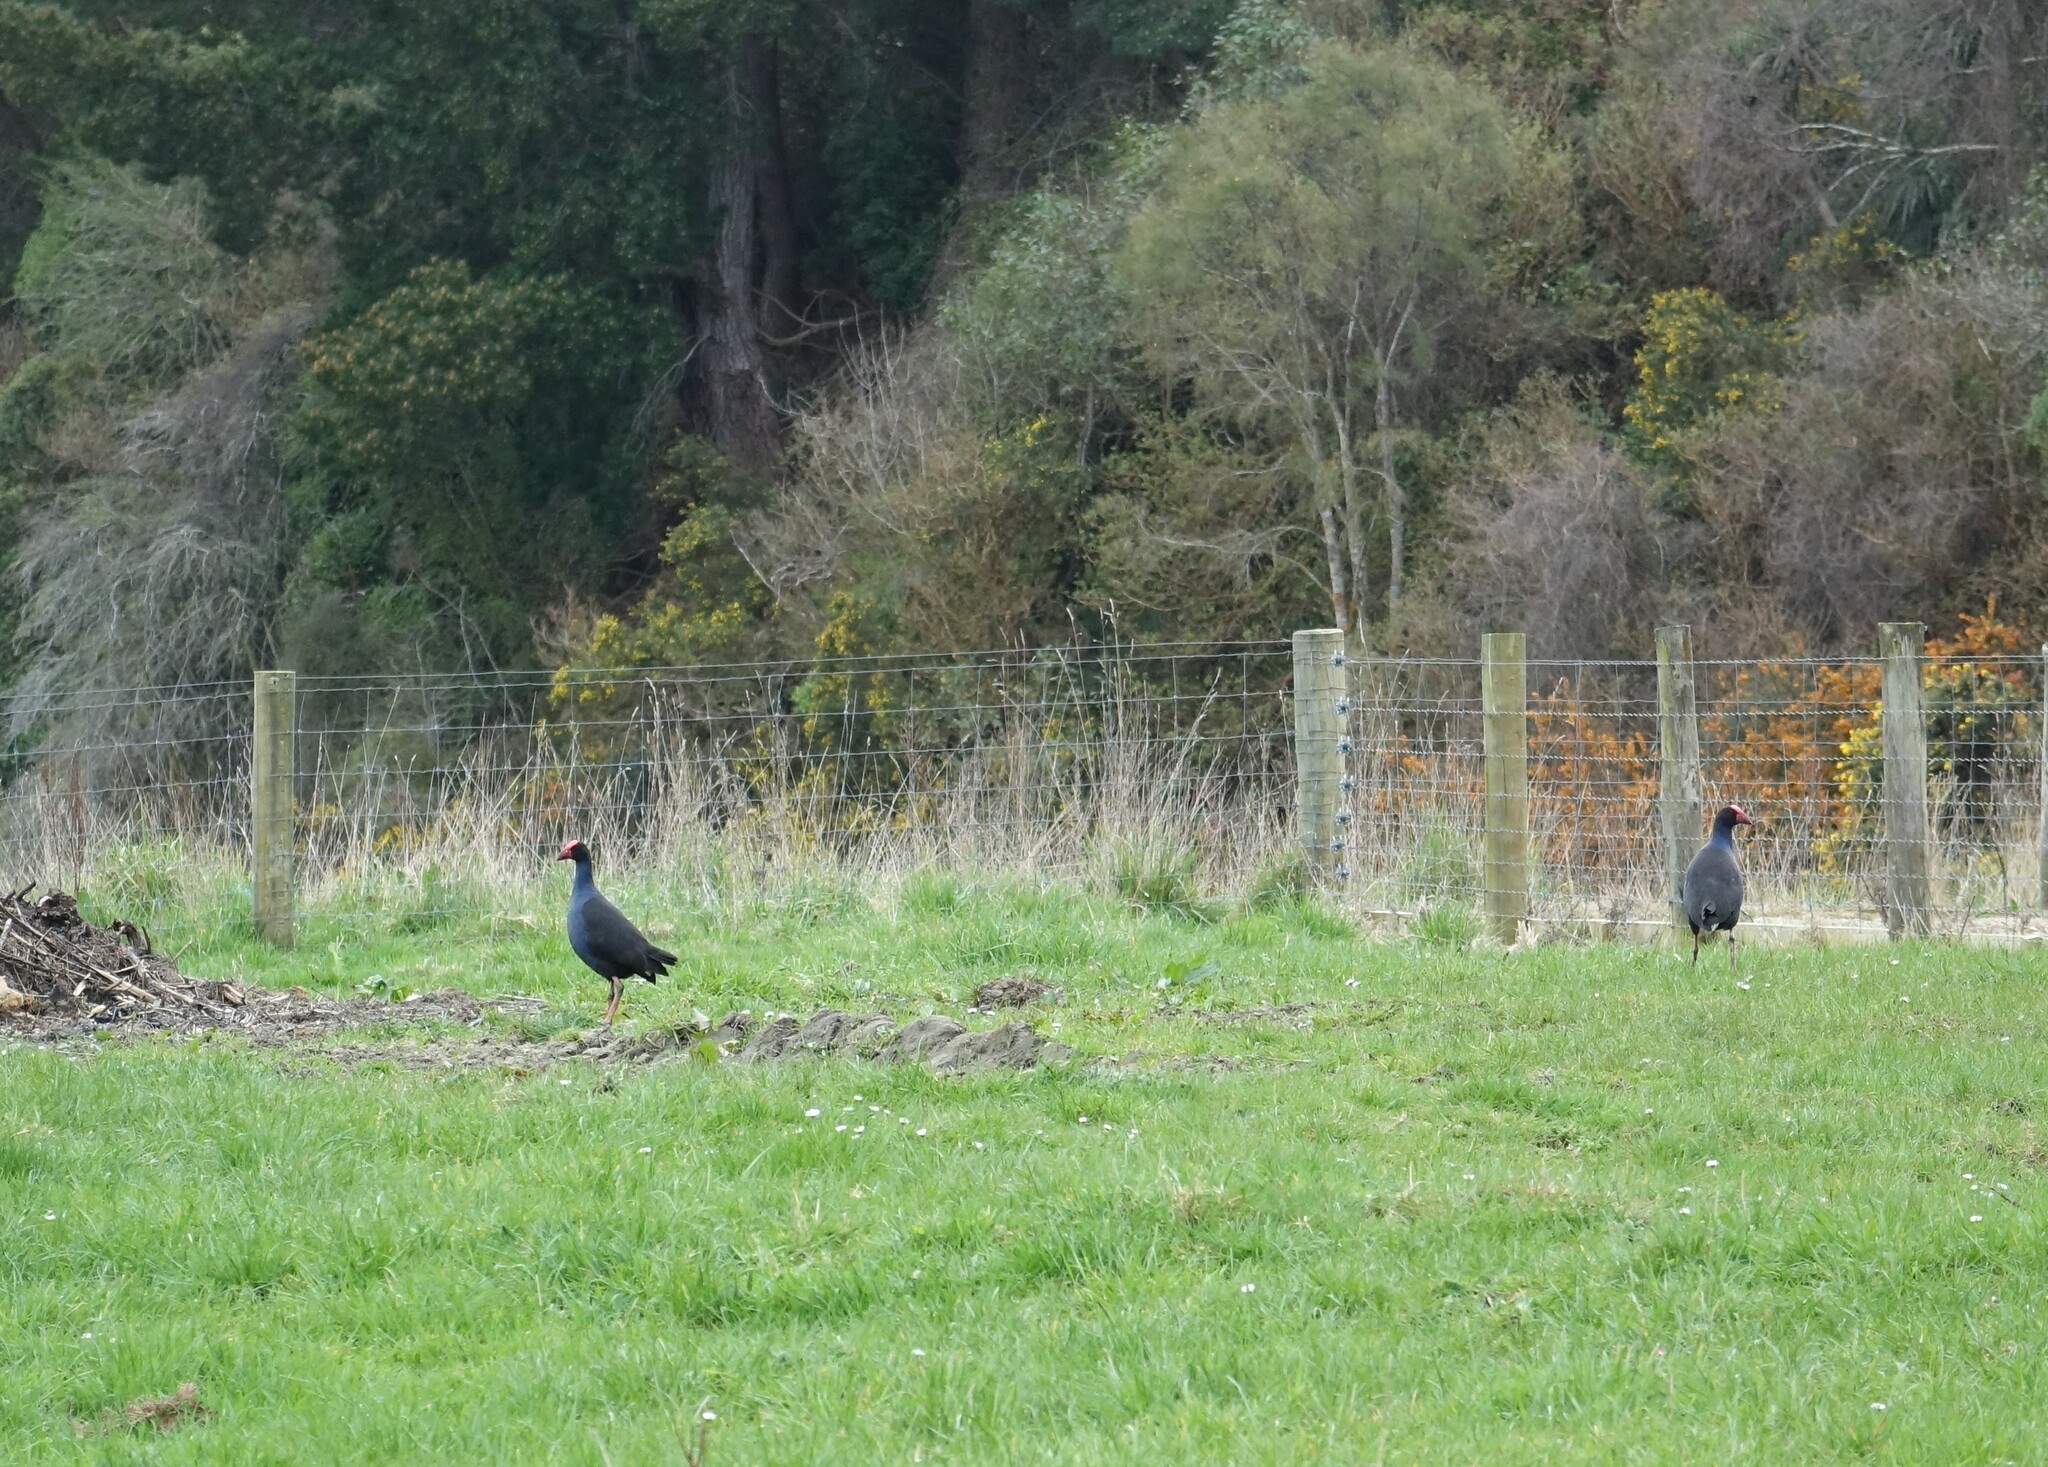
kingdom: Animalia
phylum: Chordata
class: Aves
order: Gruiformes
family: Rallidae
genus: Porphyrio
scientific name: Porphyrio melanotus
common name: Australasian swamphen
